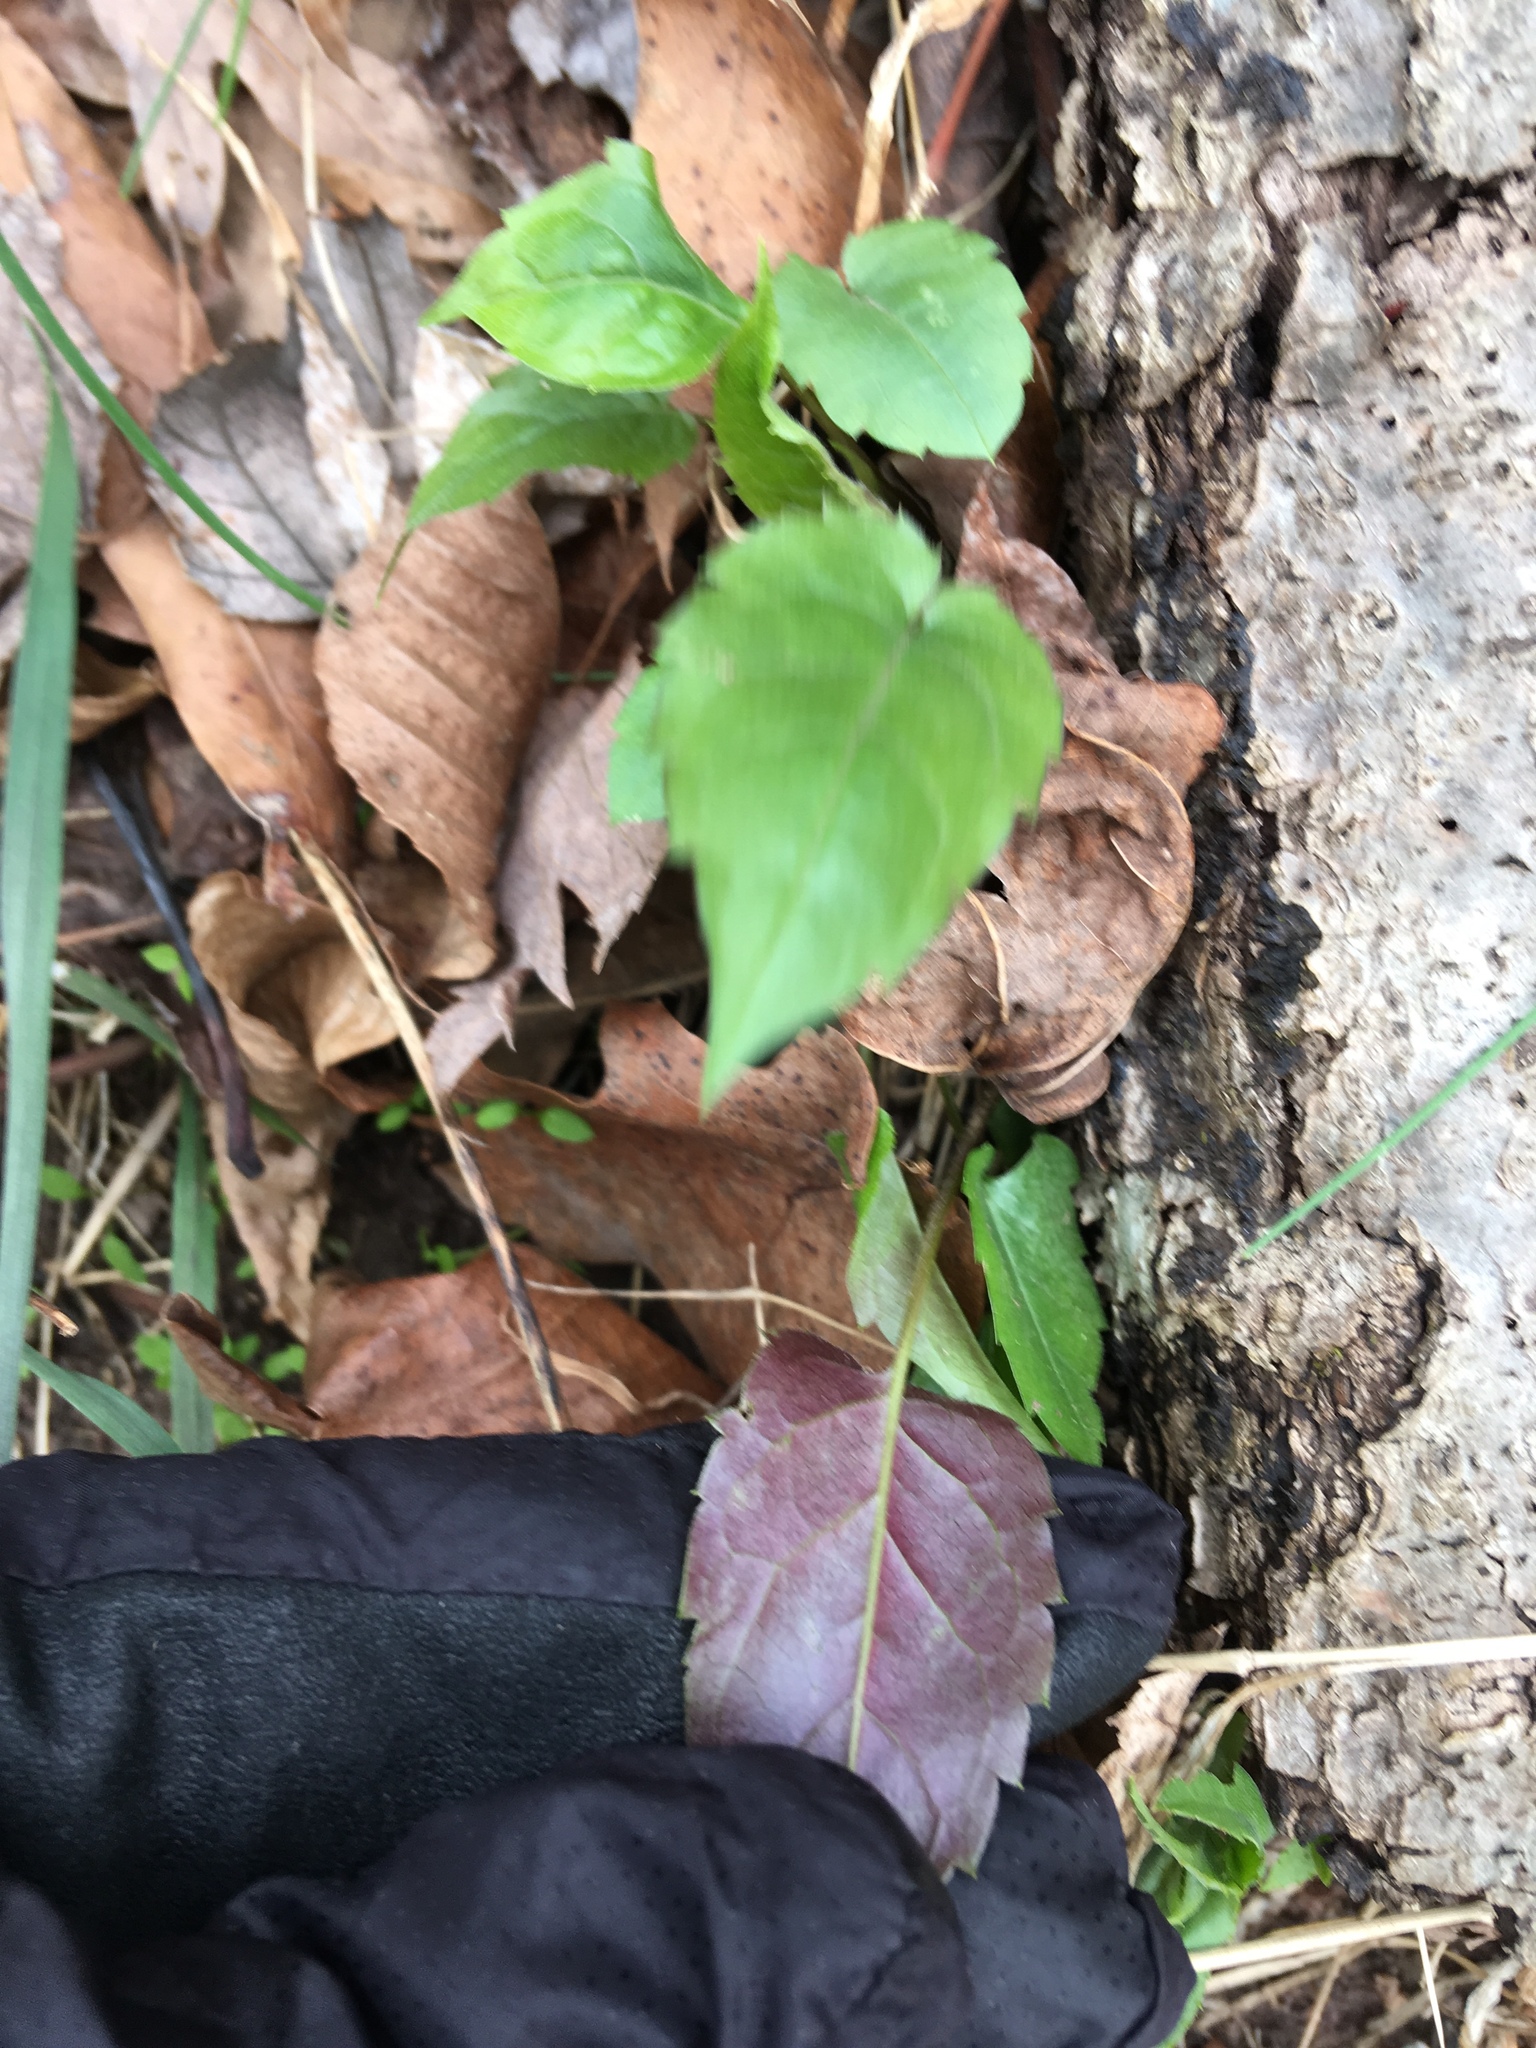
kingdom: Plantae
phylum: Tracheophyta
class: Magnoliopsida
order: Asterales
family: Asteraceae
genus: Eurybia
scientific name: Eurybia divaricata
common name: White wood aster
